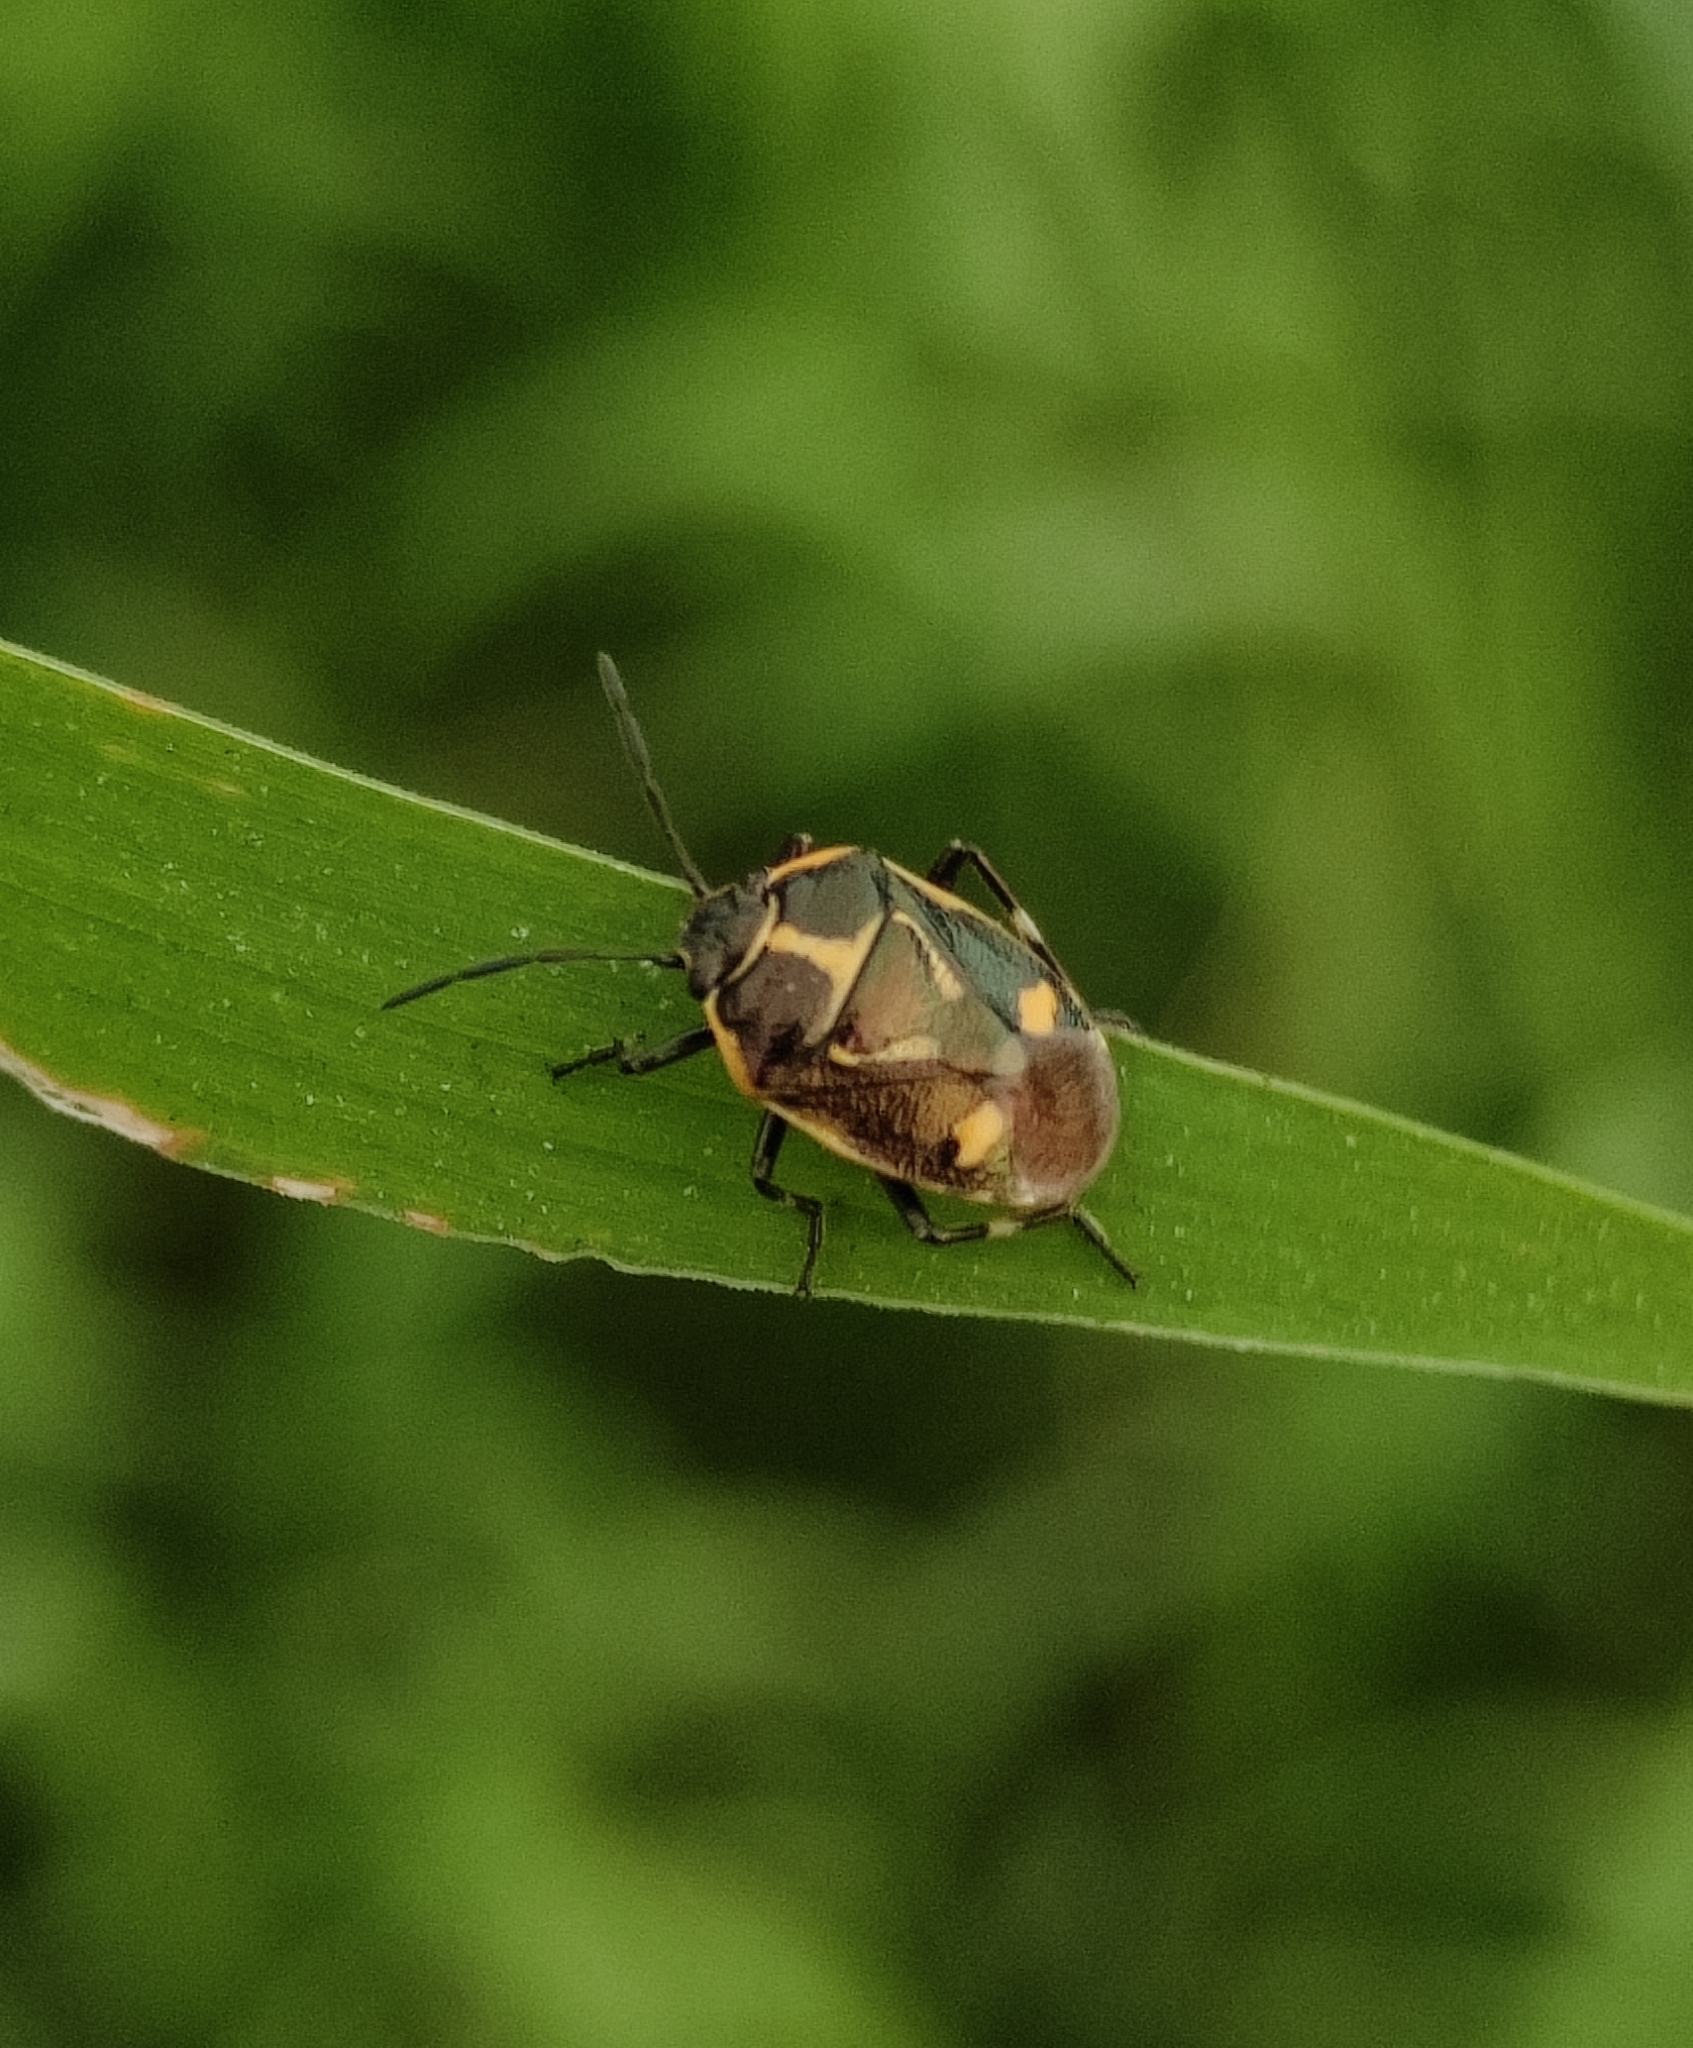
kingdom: Animalia
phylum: Arthropoda
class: Insecta
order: Hemiptera
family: Pentatomidae
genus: Eurydema
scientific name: Eurydema oleracea
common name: Cabbage bug
